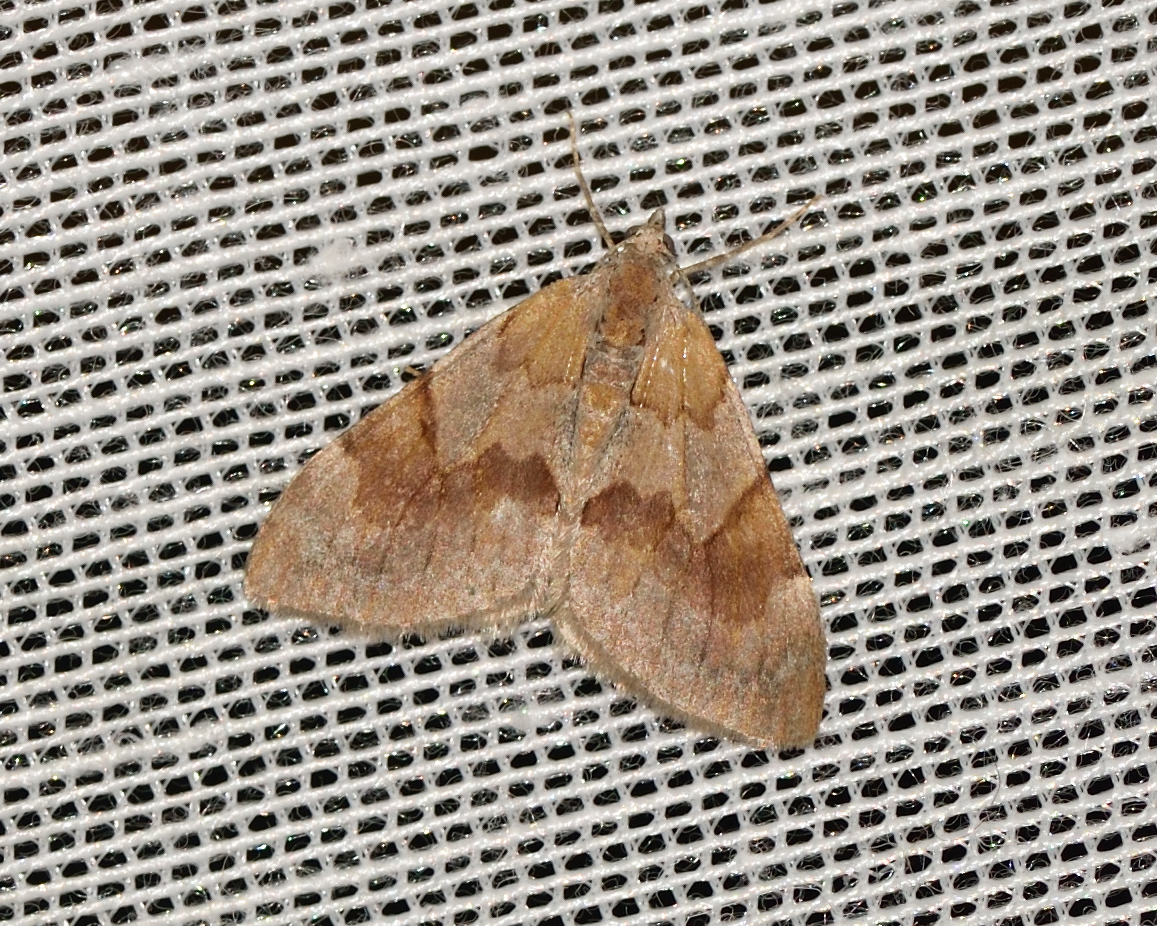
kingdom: Animalia
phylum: Arthropoda
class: Insecta
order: Lepidoptera
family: Geometridae
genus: Pennithera
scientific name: Pennithera firmata
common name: Pine carpet
